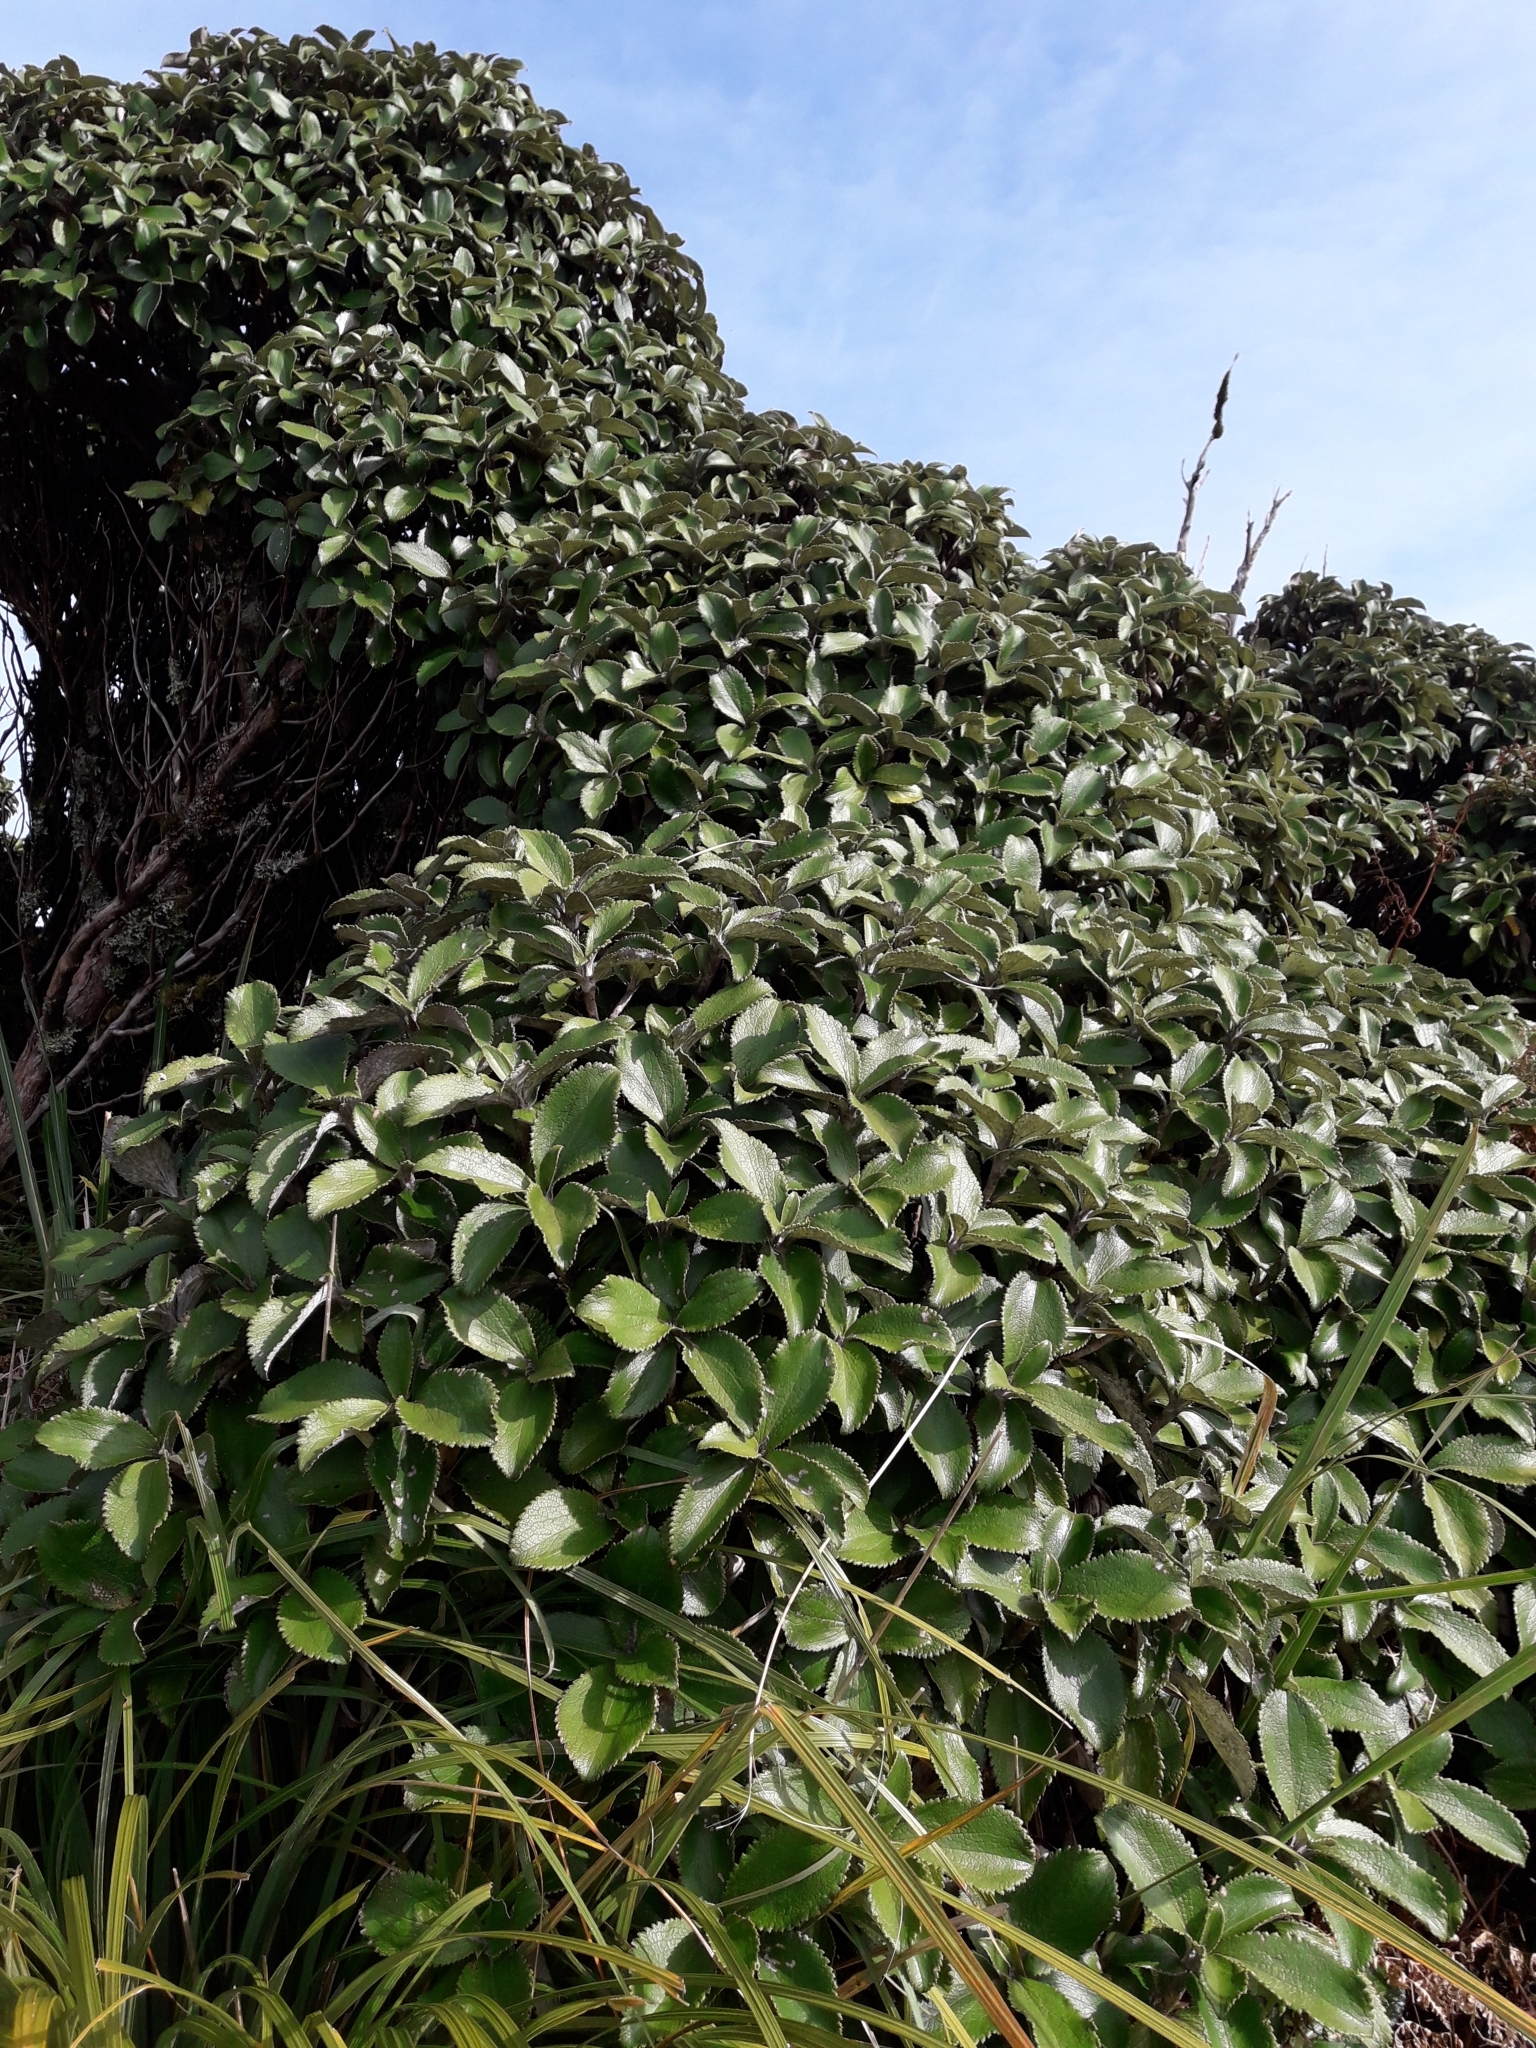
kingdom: Plantae
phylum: Tracheophyta
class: Magnoliopsida
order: Asterales
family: Asteraceae
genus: Macrolearia
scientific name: Macrolearia colensoi
